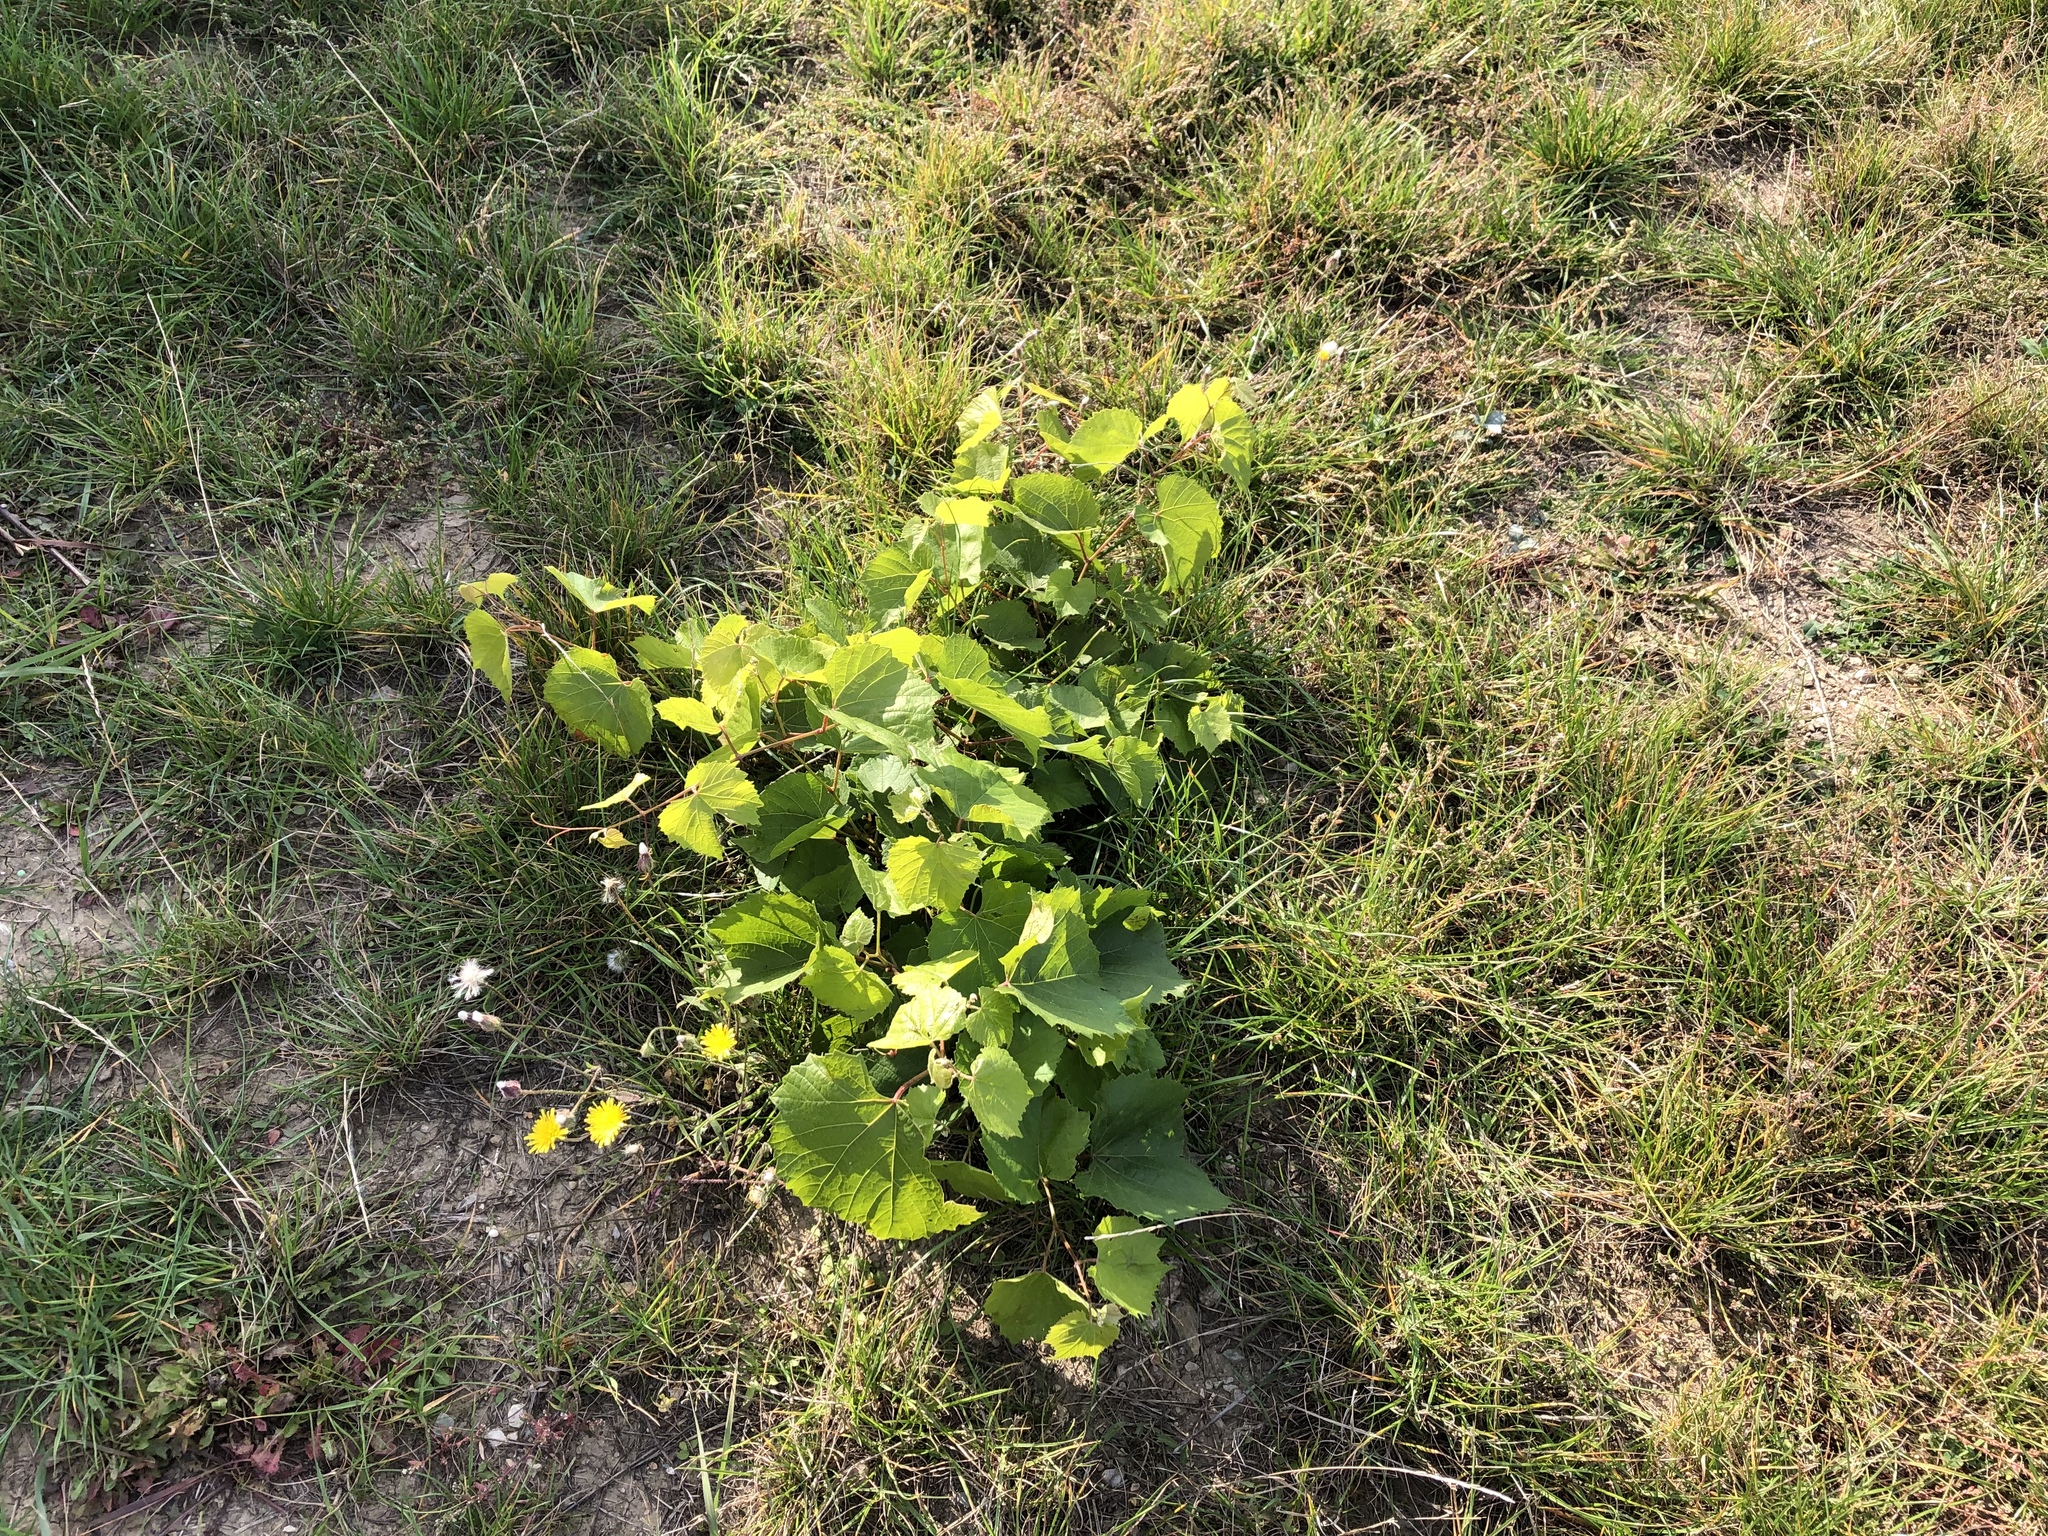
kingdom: Plantae
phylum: Tracheophyta
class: Magnoliopsida
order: Vitales
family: Vitaceae
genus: Vitis
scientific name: Vitis vinifera
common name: Grape-vine
